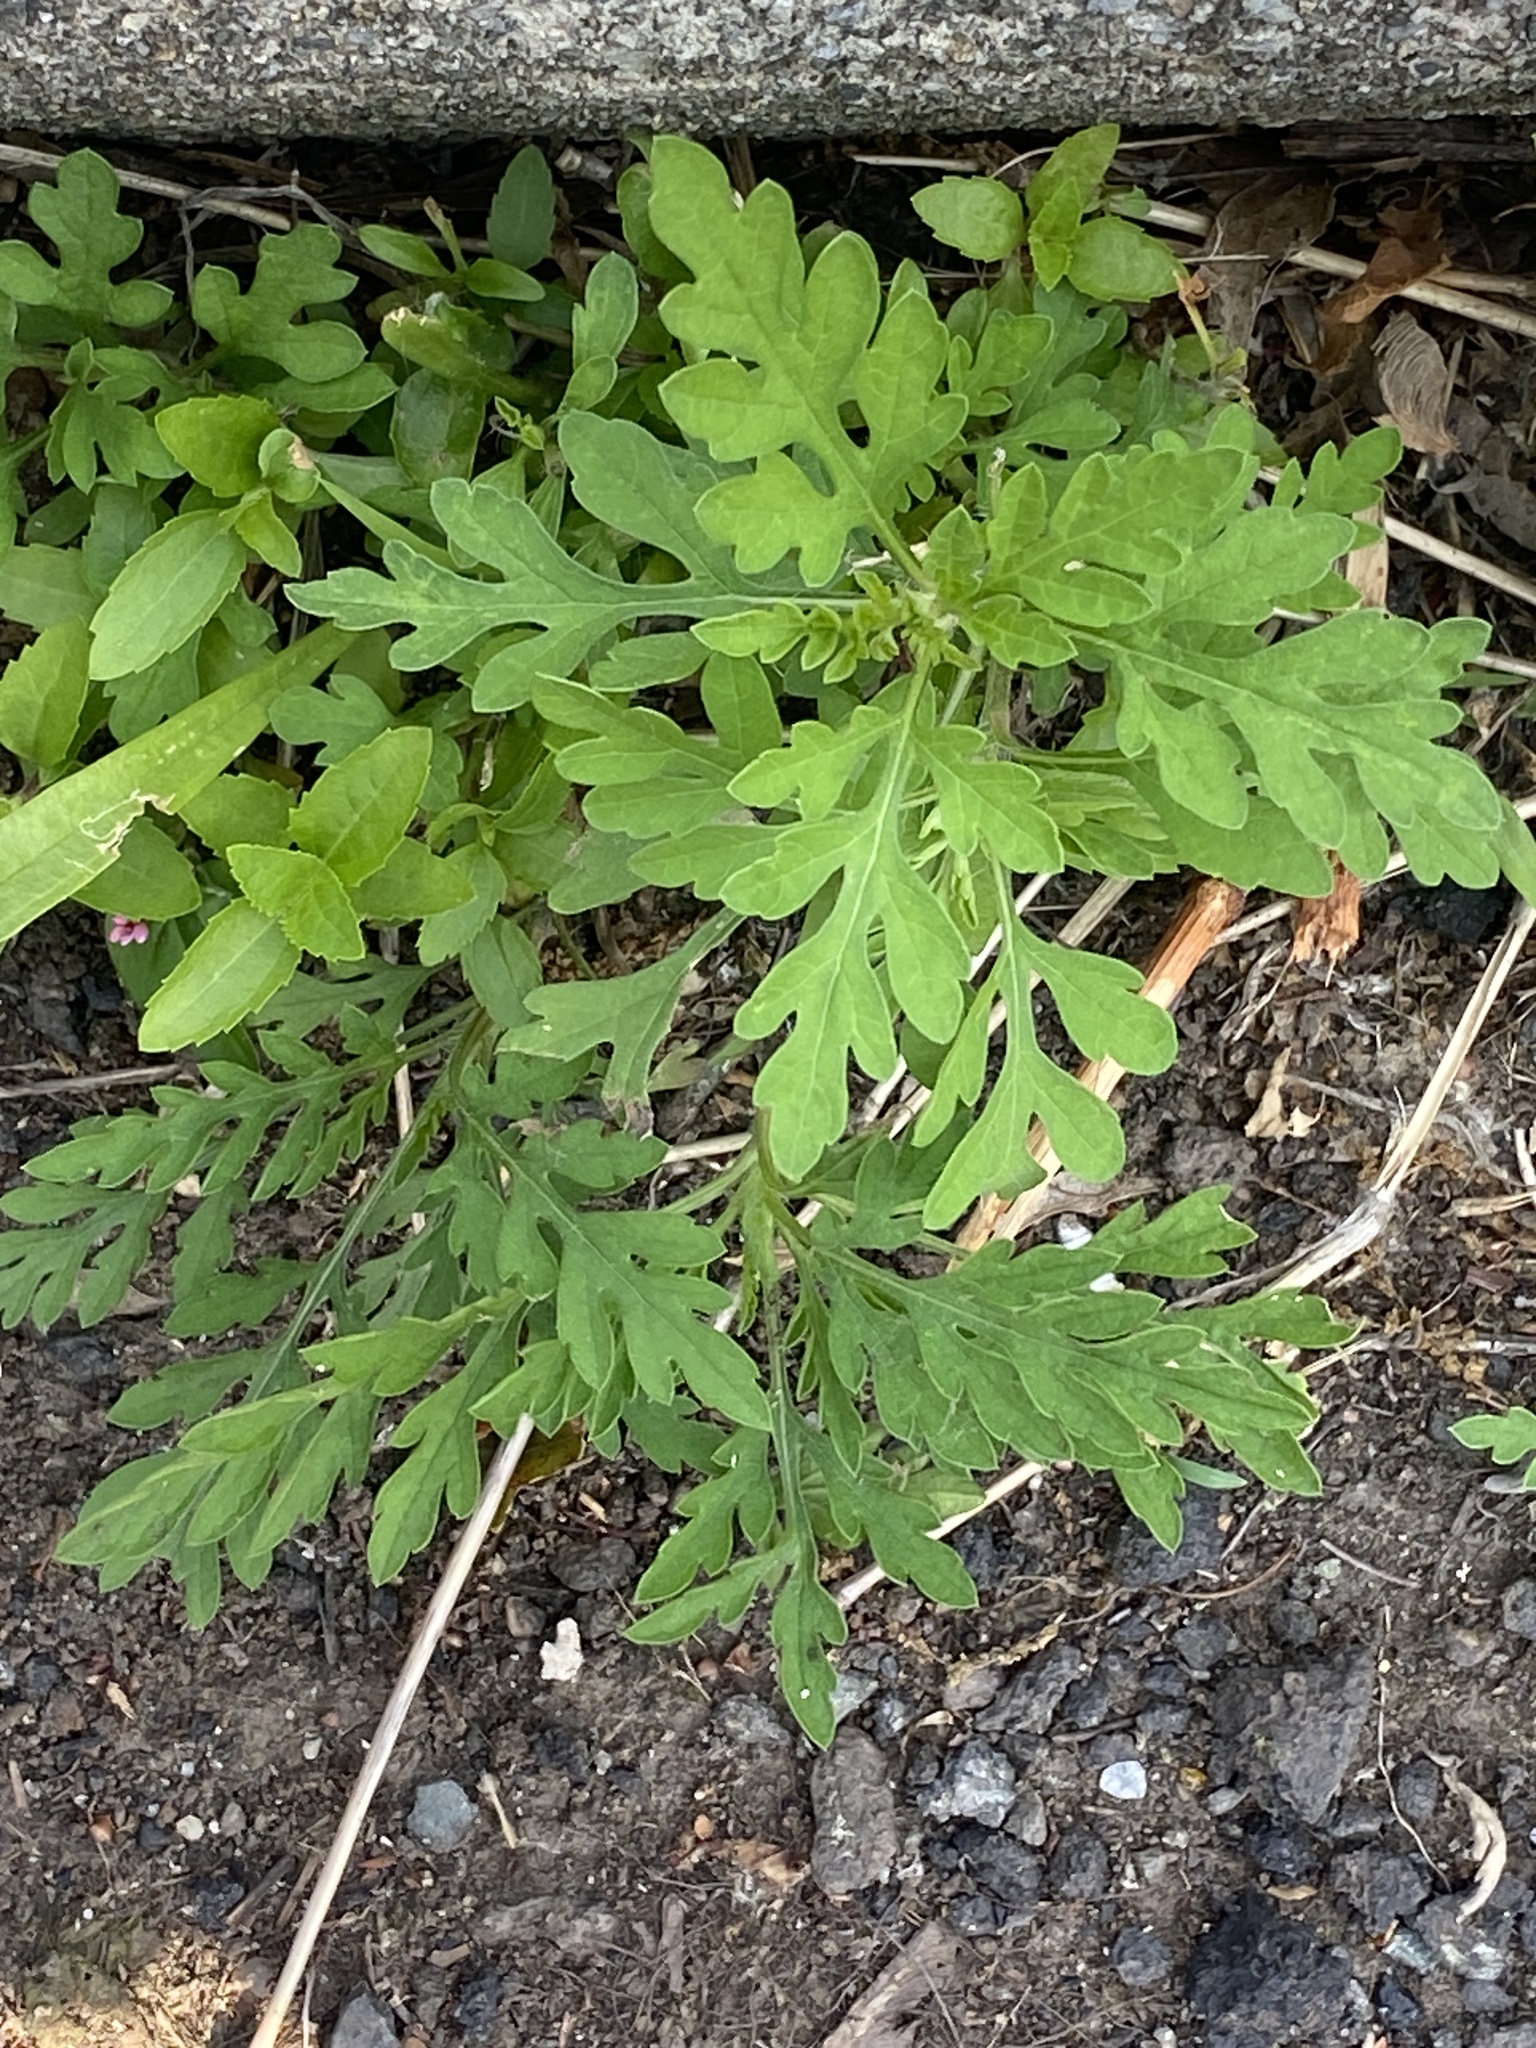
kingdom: Plantae
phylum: Tracheophyta
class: Magnoliopsida
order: Asterales
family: Asteraceae
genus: Ambrosia
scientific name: Ambrosia artemisiifolia
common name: Annual ragweed
